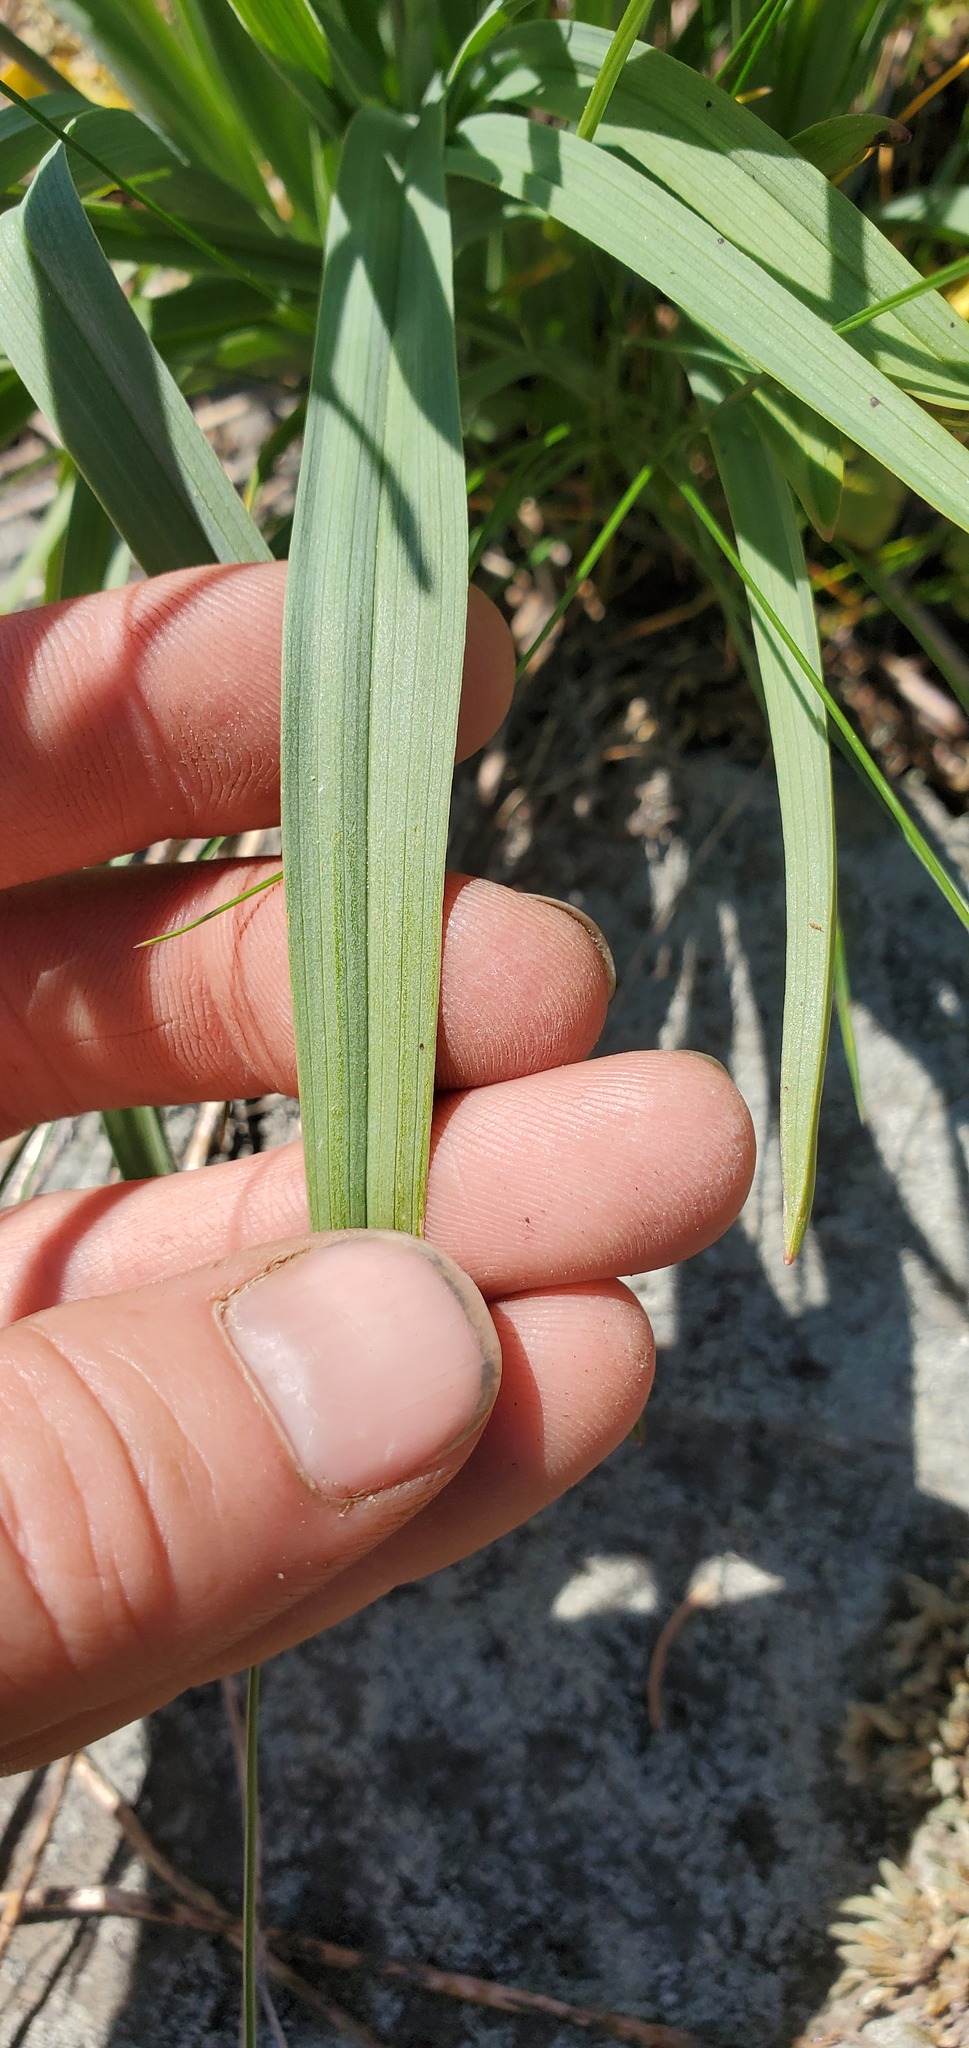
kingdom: Plantae
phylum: Tracheophyta
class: Liliopsida
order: Liliales
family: Melanthiaceae
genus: Anticlea
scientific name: Anticlea elegans
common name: Mountain death camas
